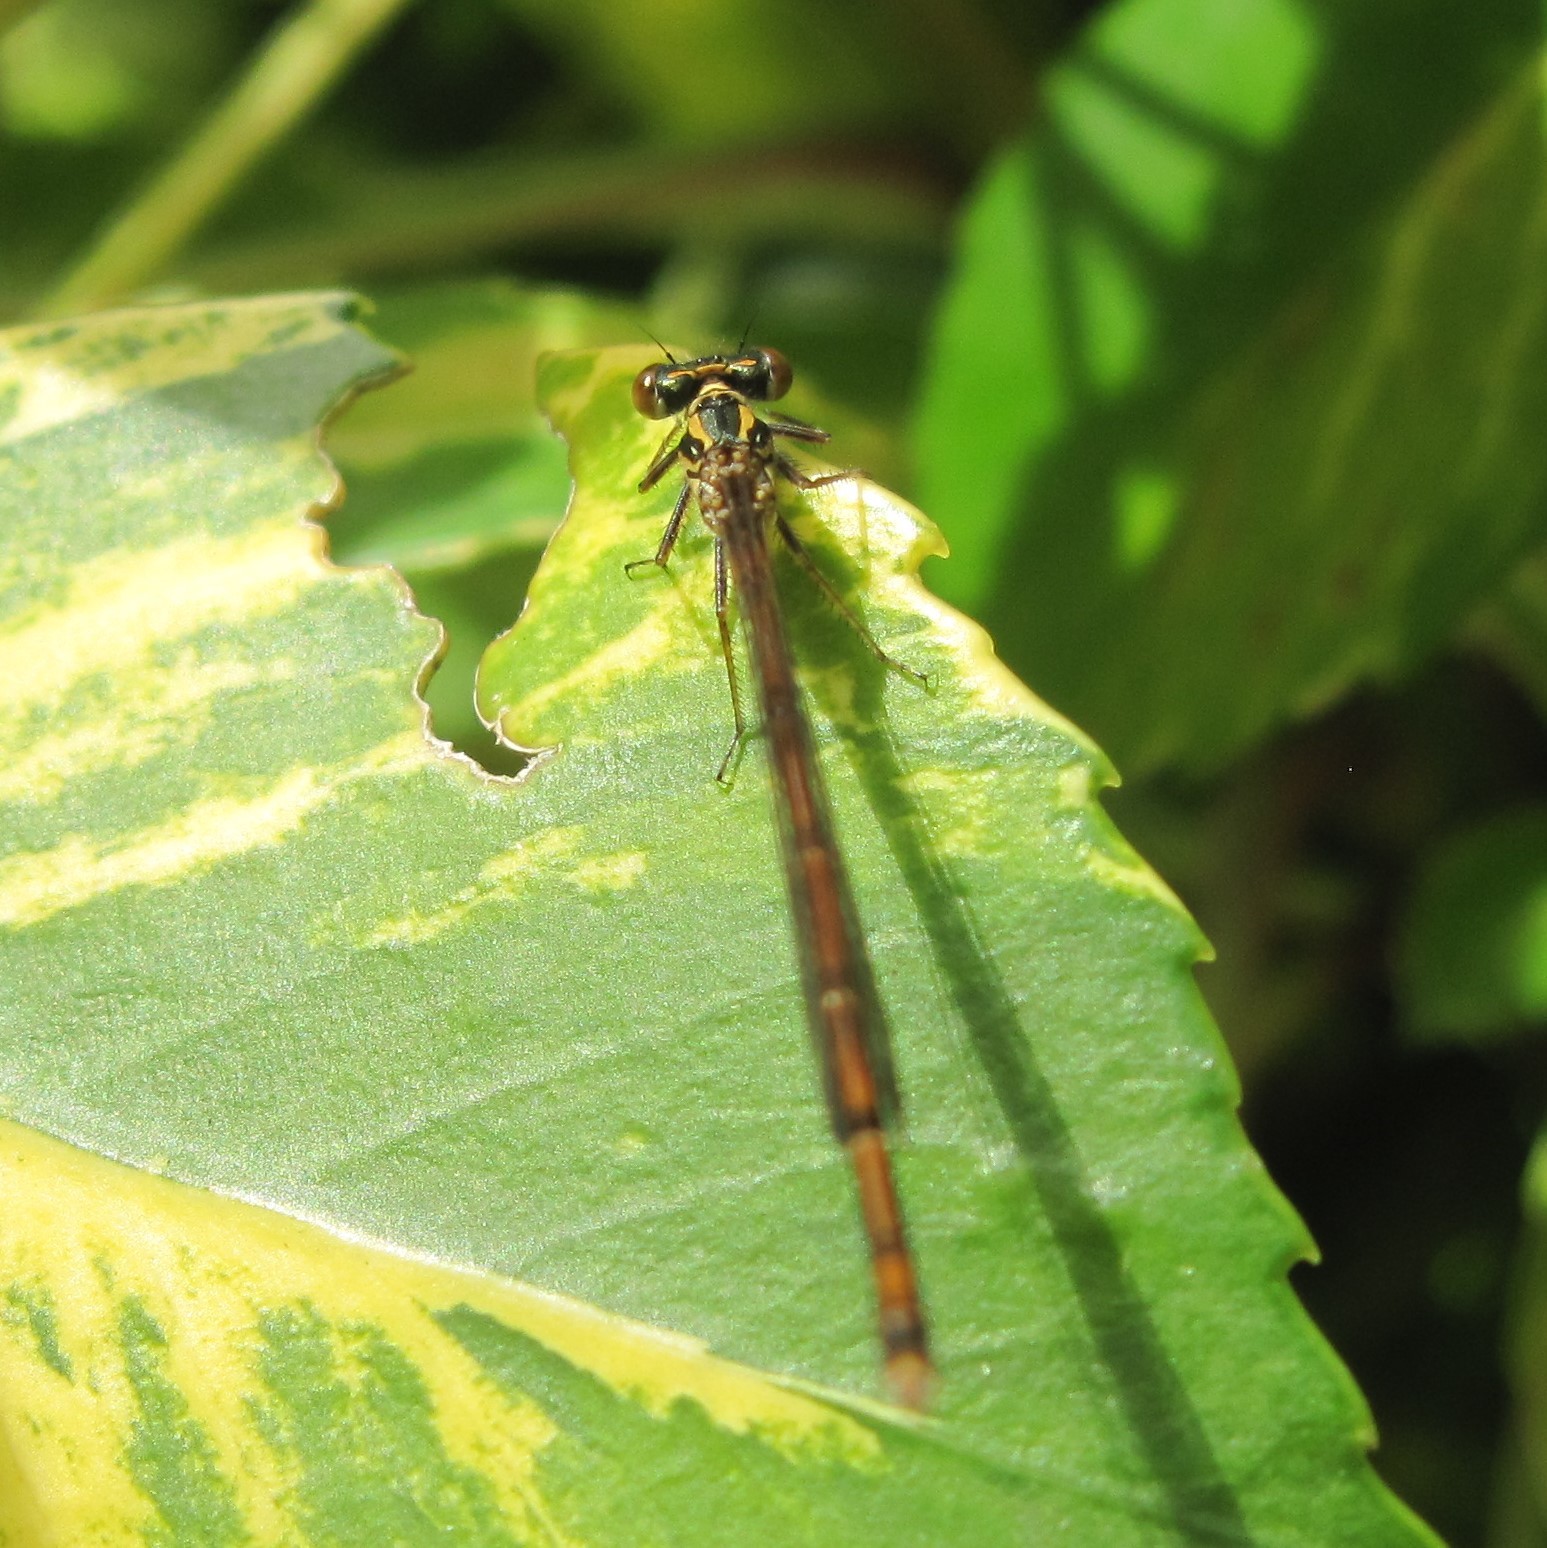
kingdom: Animalia
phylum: Arthropoda
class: Insecta
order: Odonata
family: Coenagrionidae
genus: Xanthocnemis
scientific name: Xanthocnemis zealandica
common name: Common redcoat damselfly
